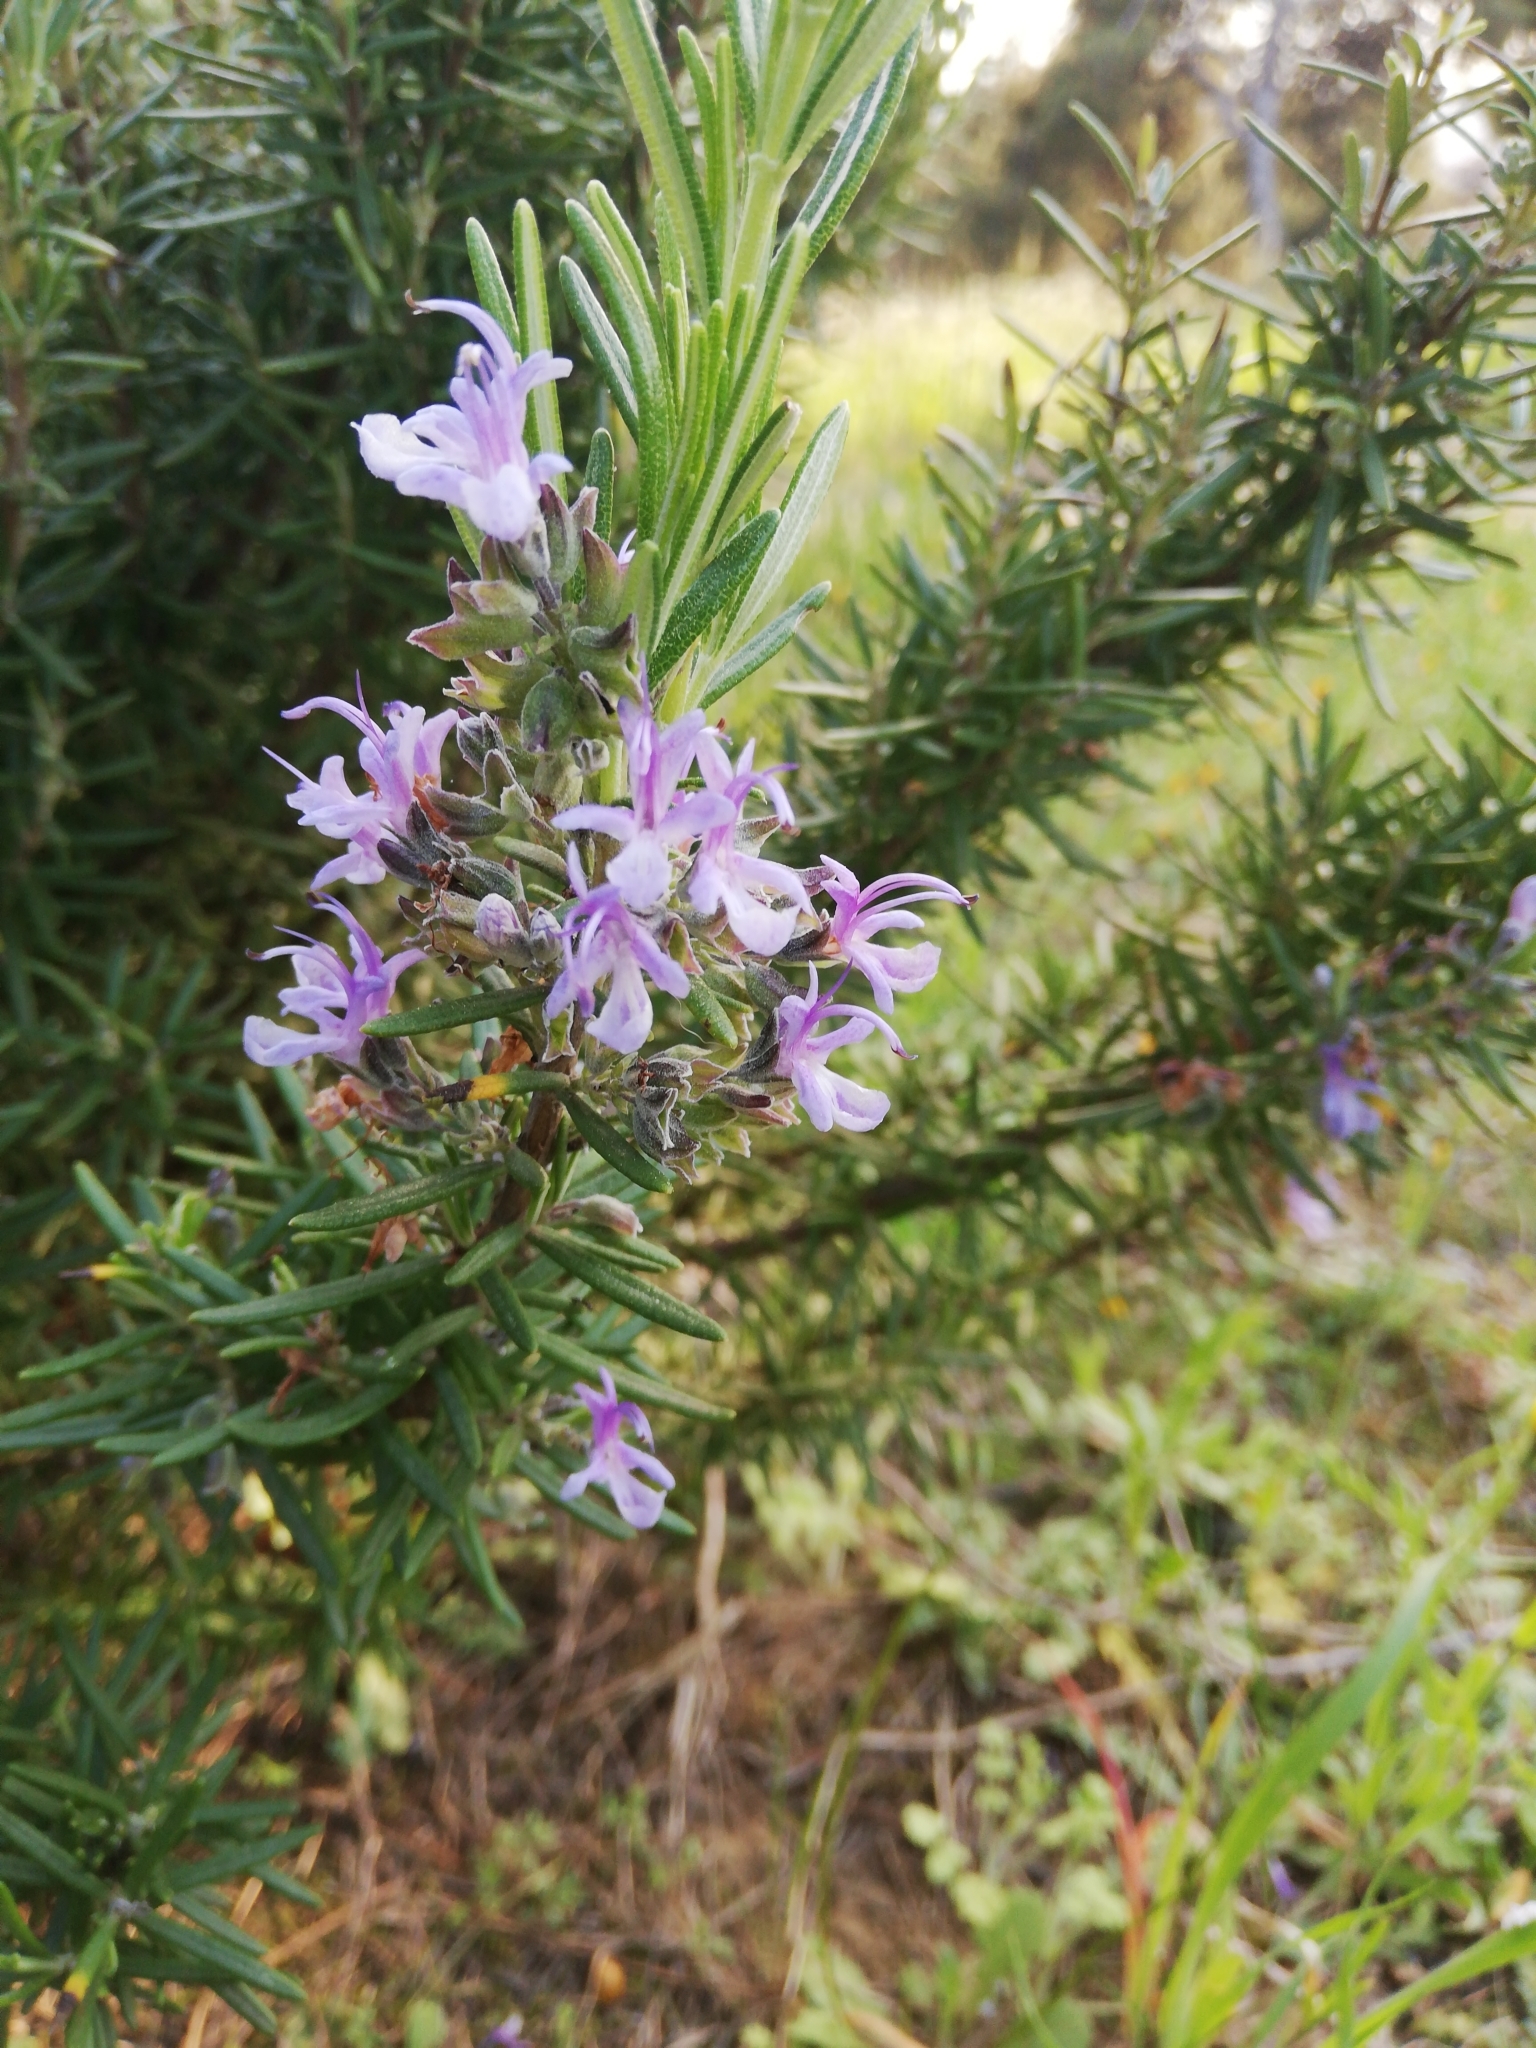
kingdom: Plantae
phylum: Tracheophyta
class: Magnoliopsida
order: Lamiales
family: Lamiaceae
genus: Salvia
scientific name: Salvia rosmarinus
